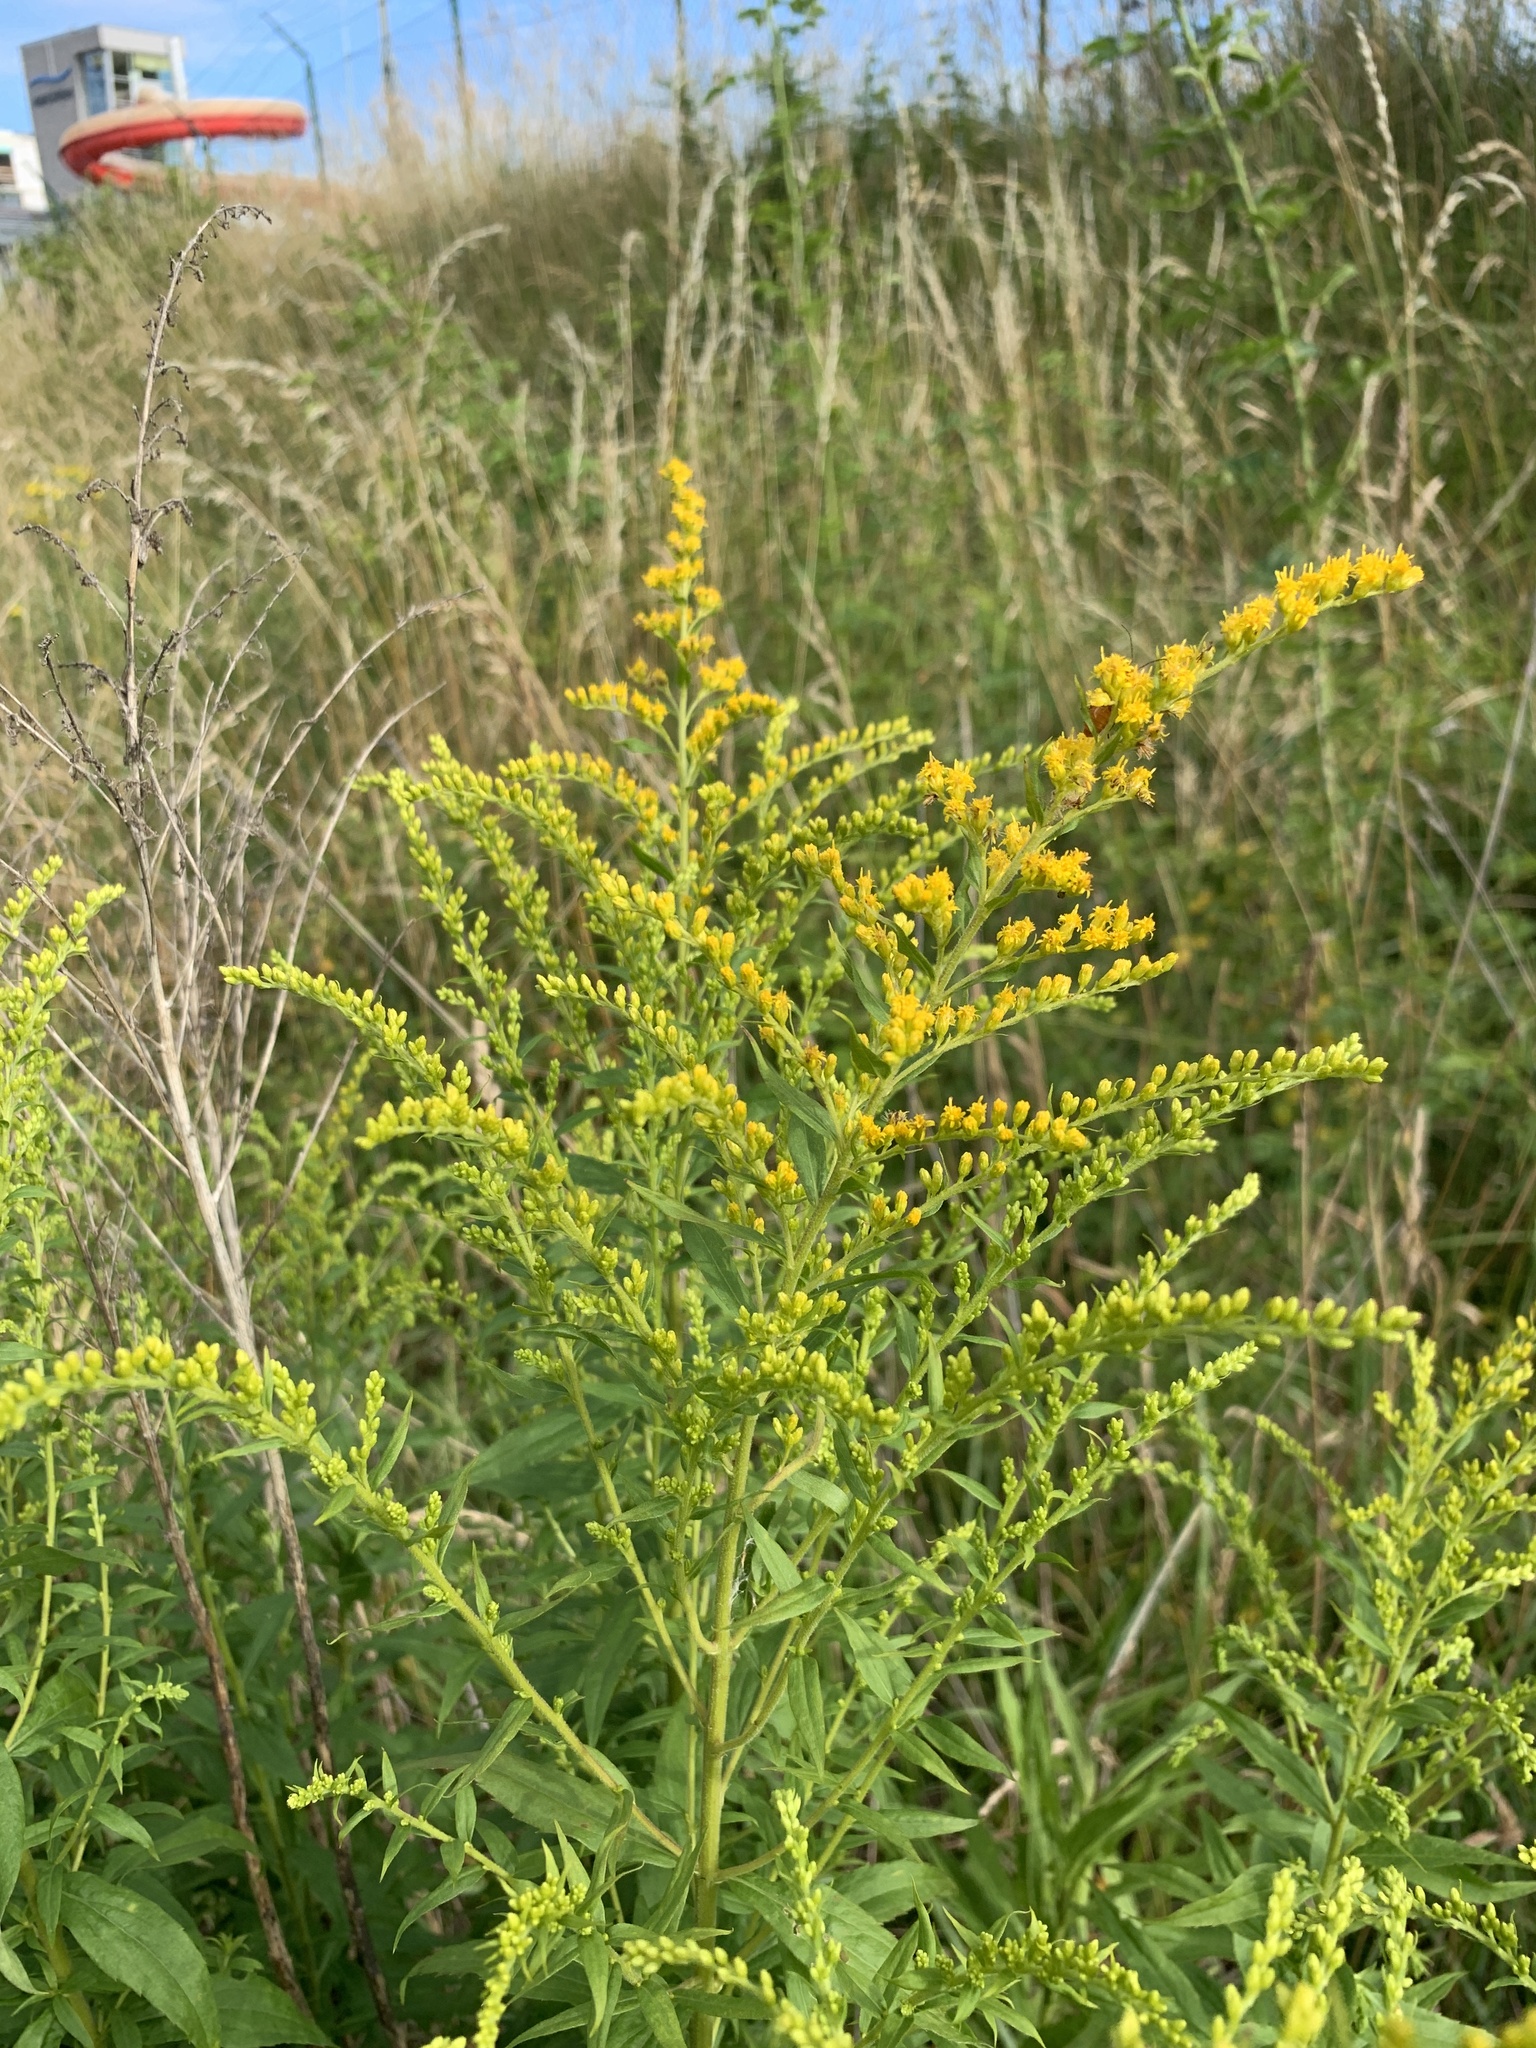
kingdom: Plantae
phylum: Tracheophyta
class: Magnoliopsida
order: Asterales
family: Asteraceae
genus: Solidago
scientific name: Solidago canadensis
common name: Canada goldenrod
